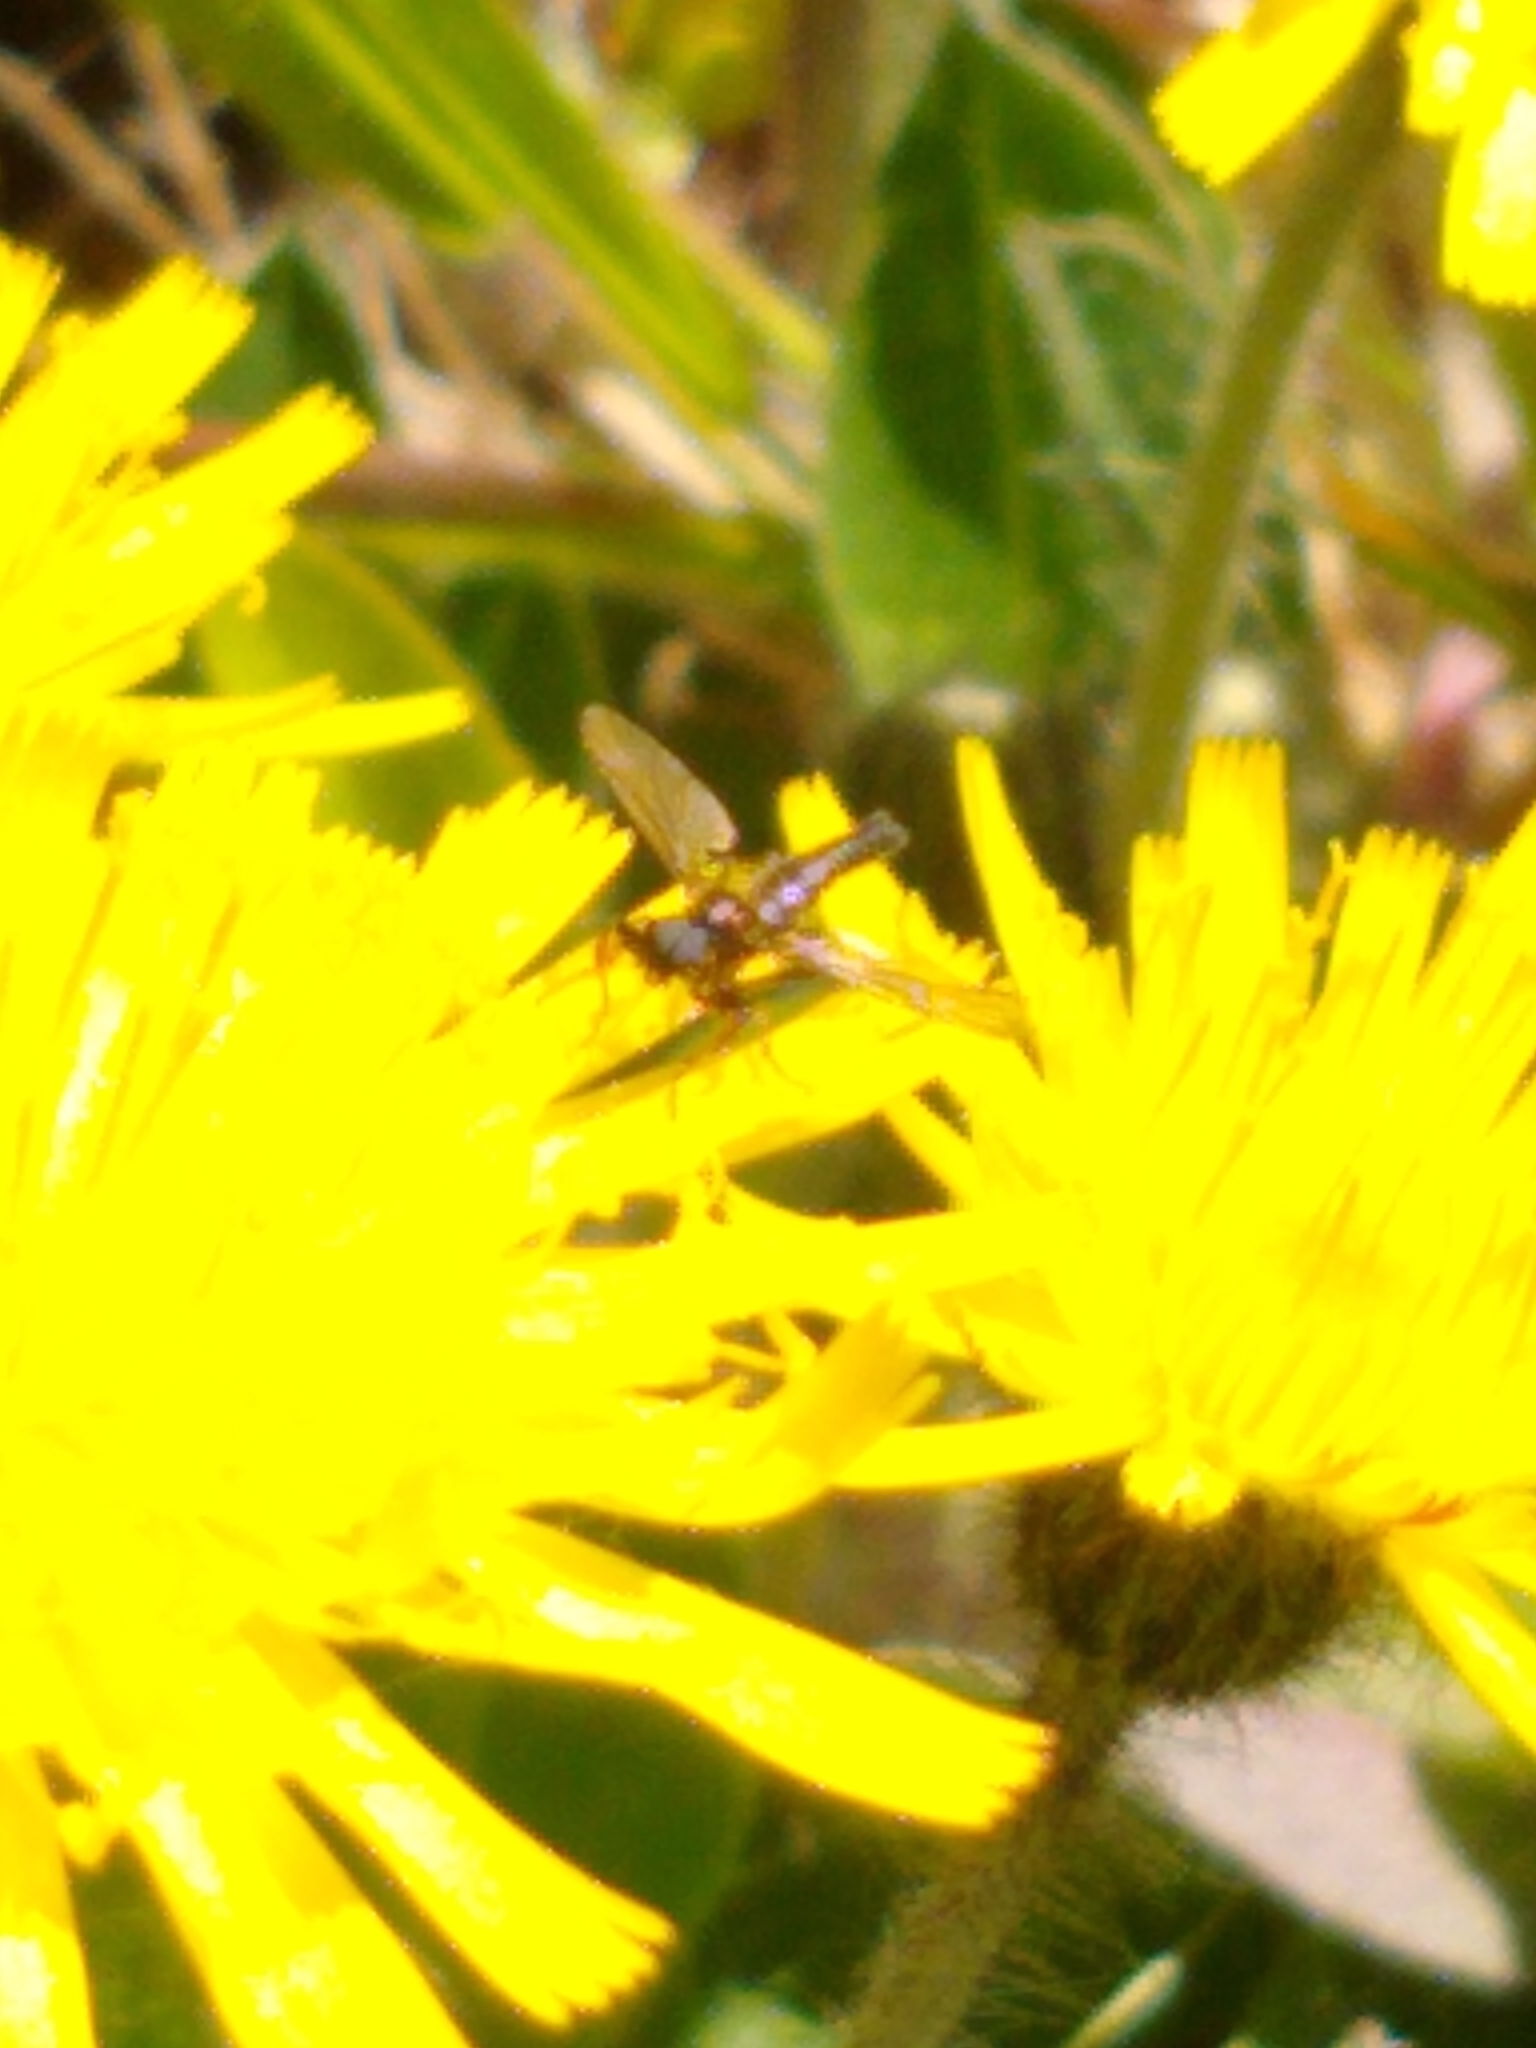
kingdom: Animalia
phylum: Arthropoda
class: Insecta
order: Diptera
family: Bibionidae
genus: Bibio
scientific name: Bibio lanigerus
